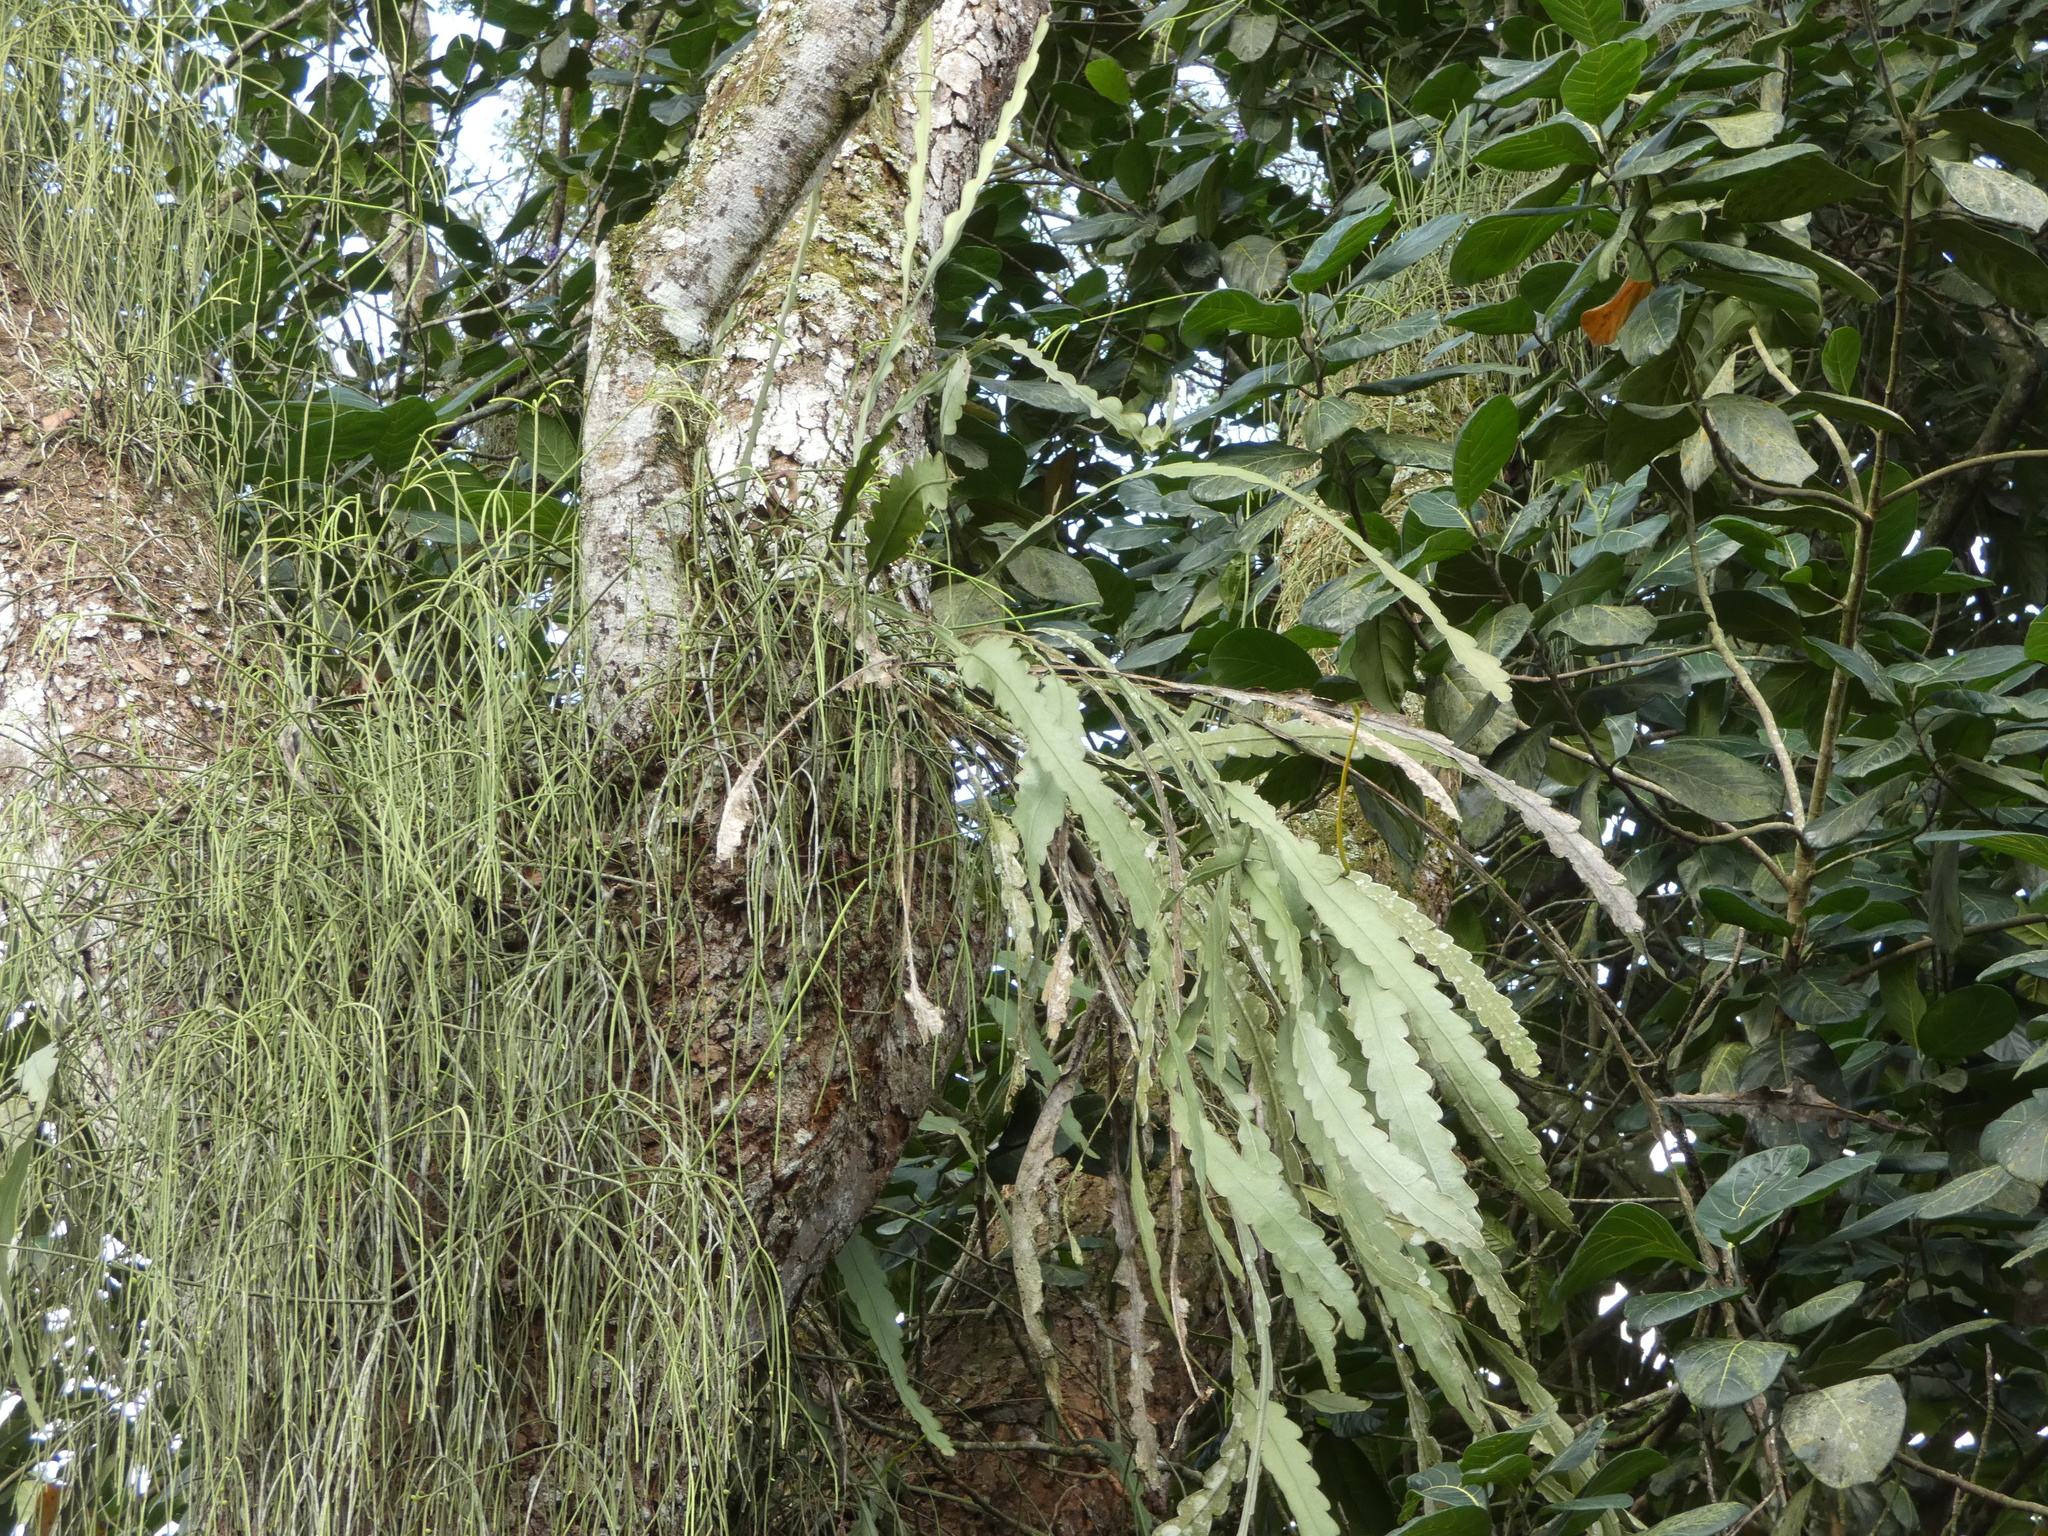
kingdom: Plantae
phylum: Tracheophyta
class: Magnoliopsida
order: Caryophyllales
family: Cactaceae
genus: Epiphyllum
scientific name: Epiphyllum phyllanthus
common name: Climbing cactus
